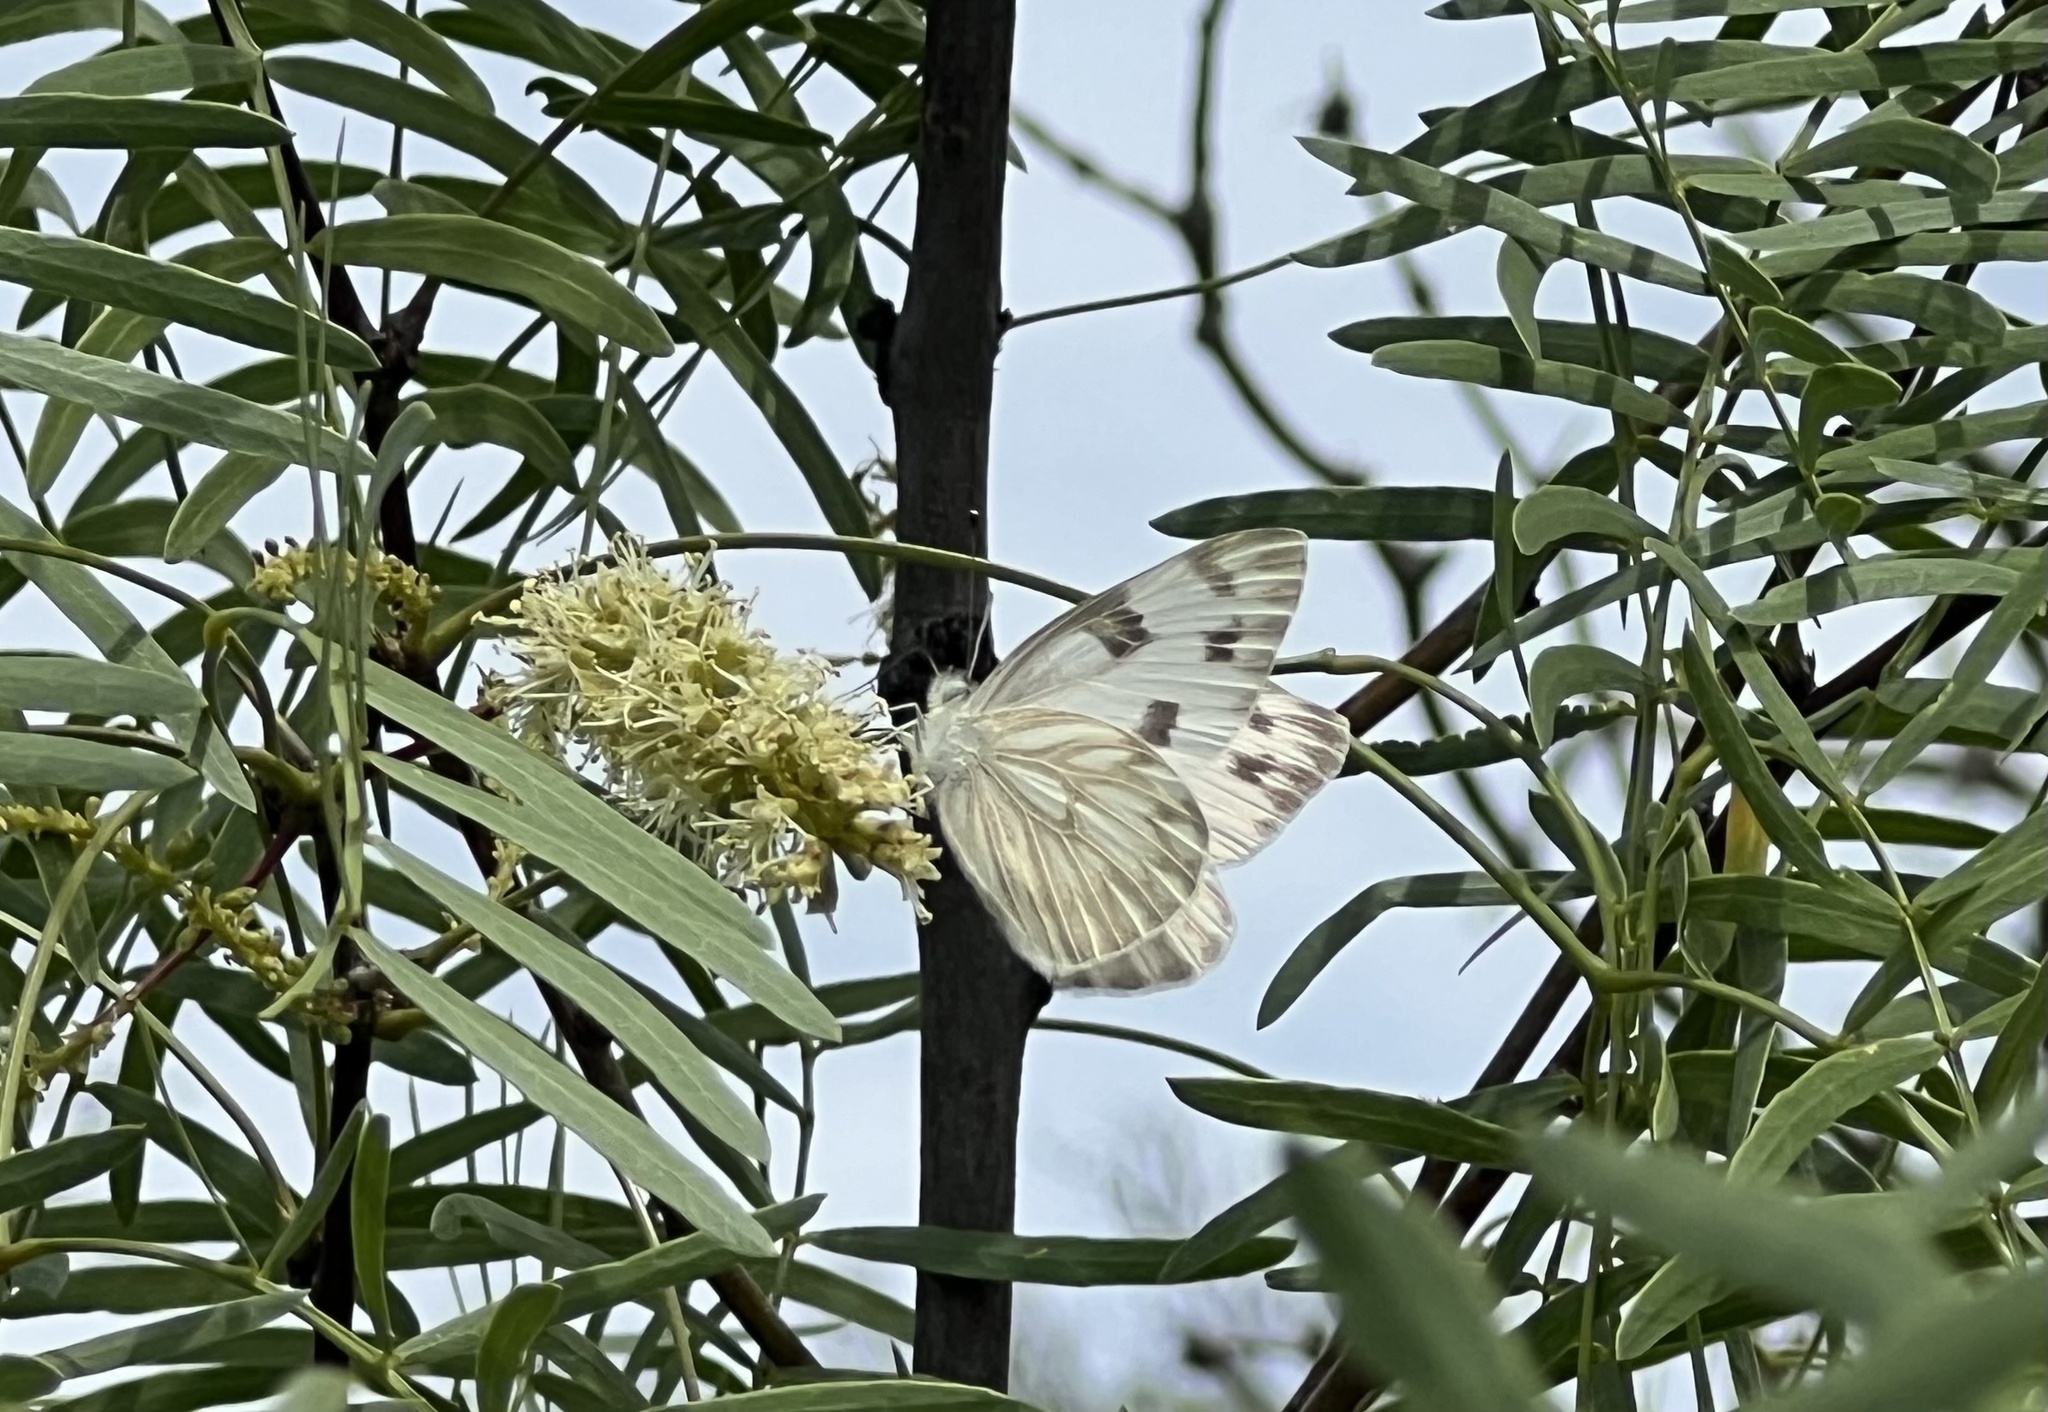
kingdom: Animalia
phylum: Arthropoda
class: Insecta
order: Lepidoptera
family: Pieridae
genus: Pontia
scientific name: Pontia protodice
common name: Checkered white
